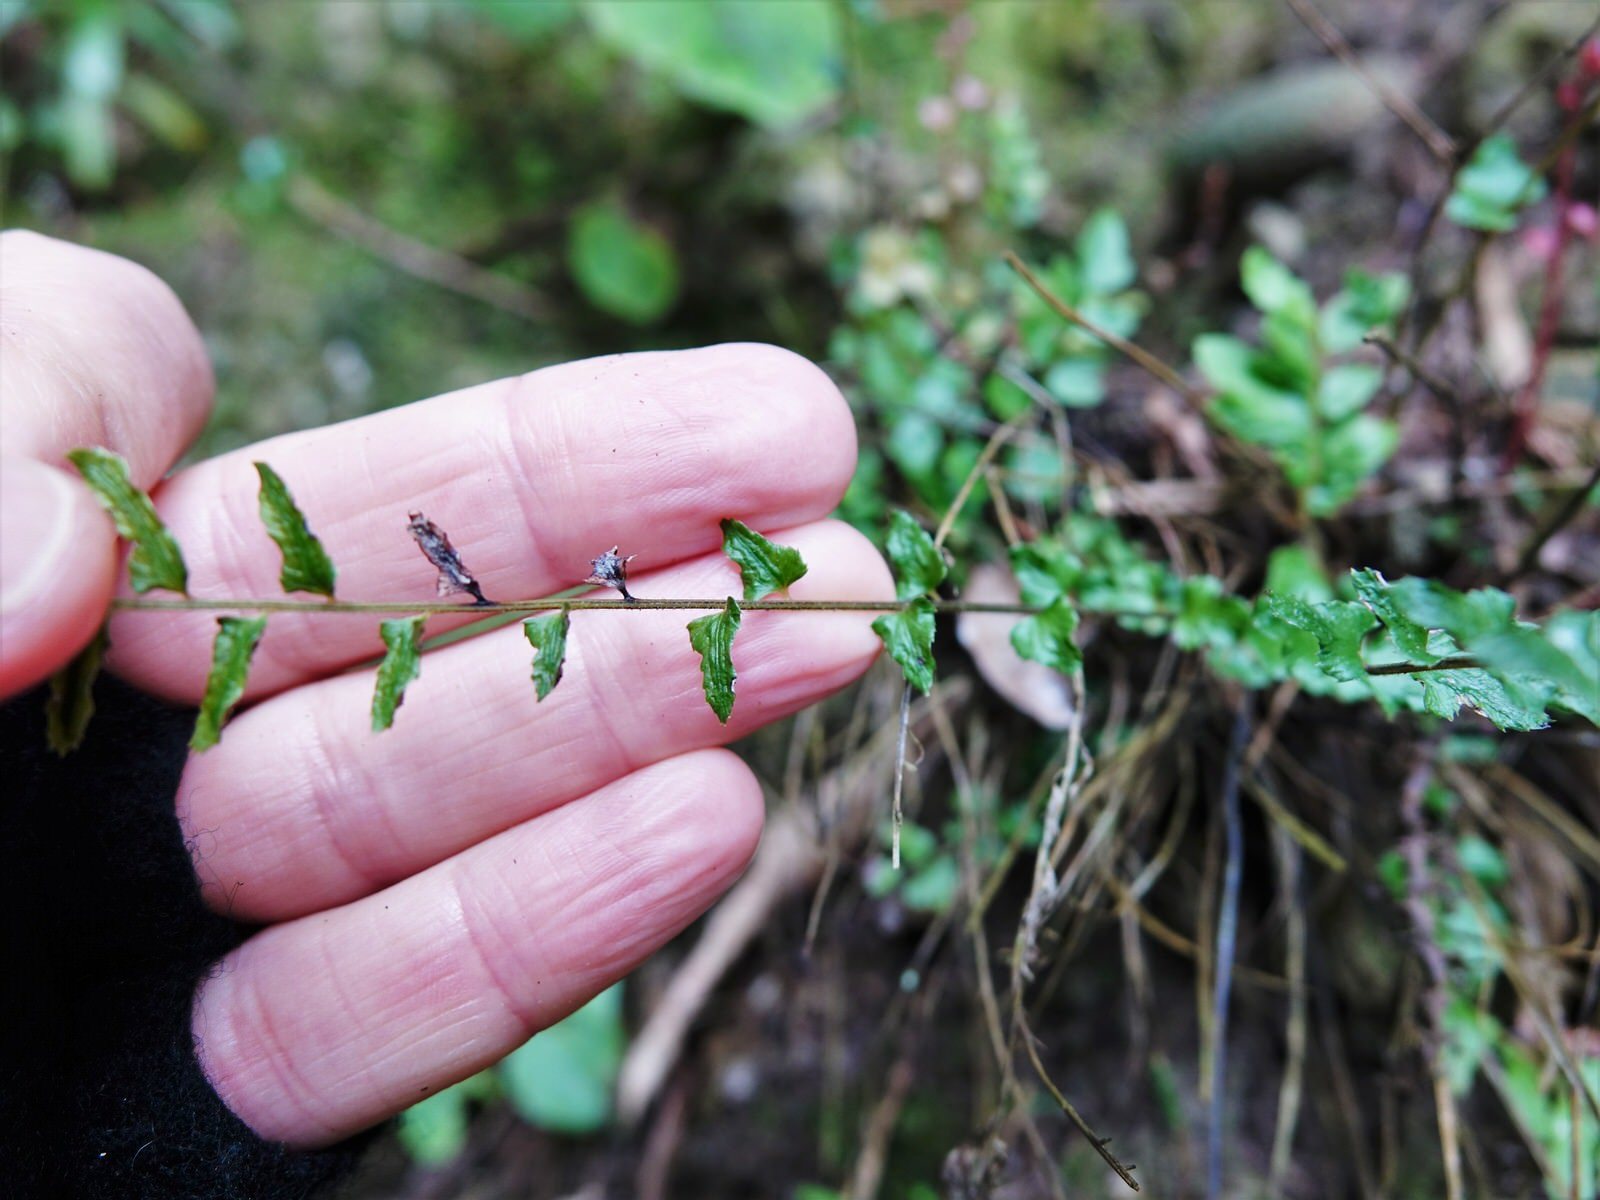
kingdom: Plantae
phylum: Tracheophyta
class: Polypodiopsida
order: Polypodiales
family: Blechnaceae
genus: Doodia
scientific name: Doodia mollis
